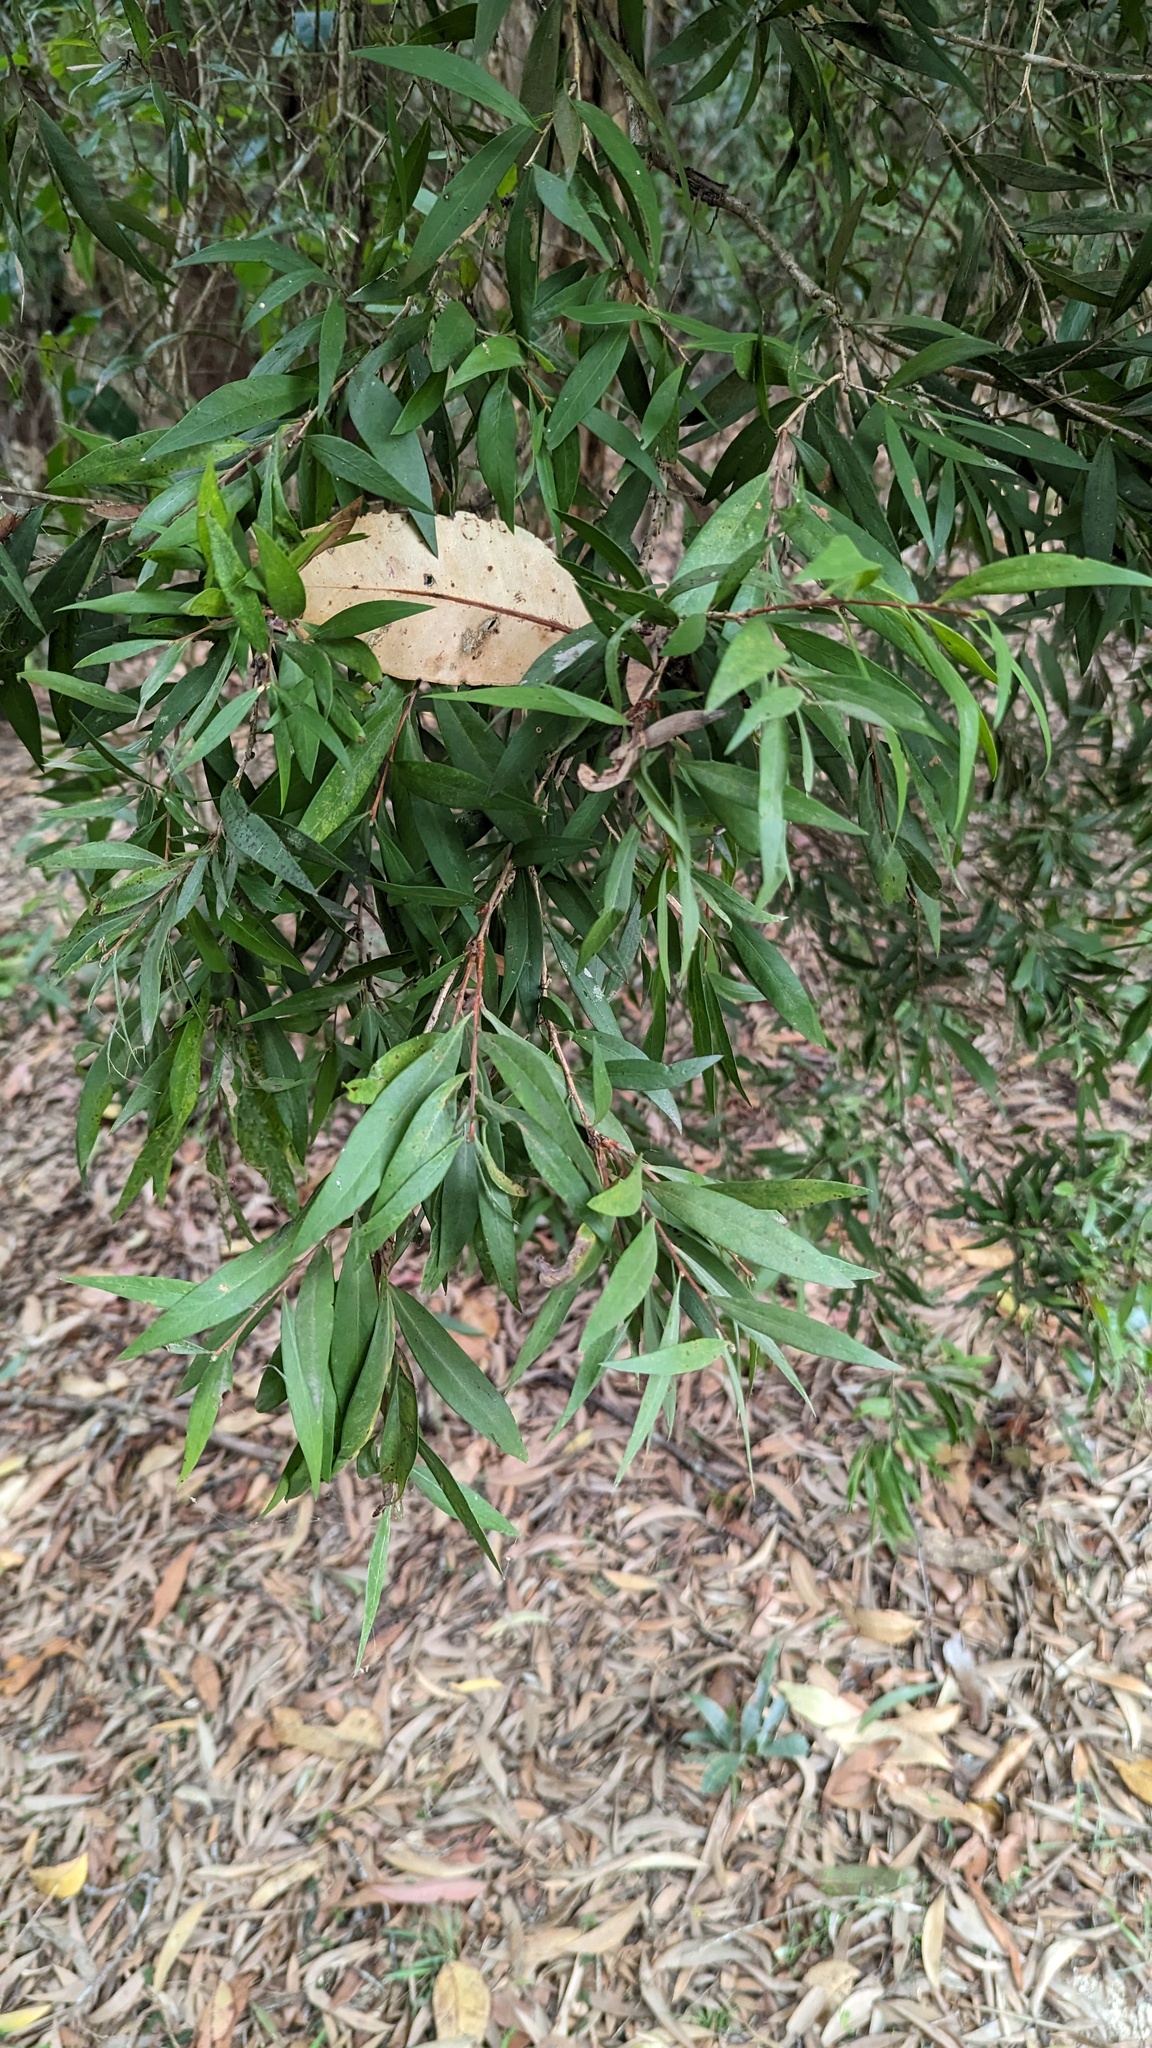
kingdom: Plantae
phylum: Tracheophyta
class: Magnoliopsida
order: Myrtales
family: Myrtaceae
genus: Callistemon
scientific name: Callistemon salignus
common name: White bottlebrush
